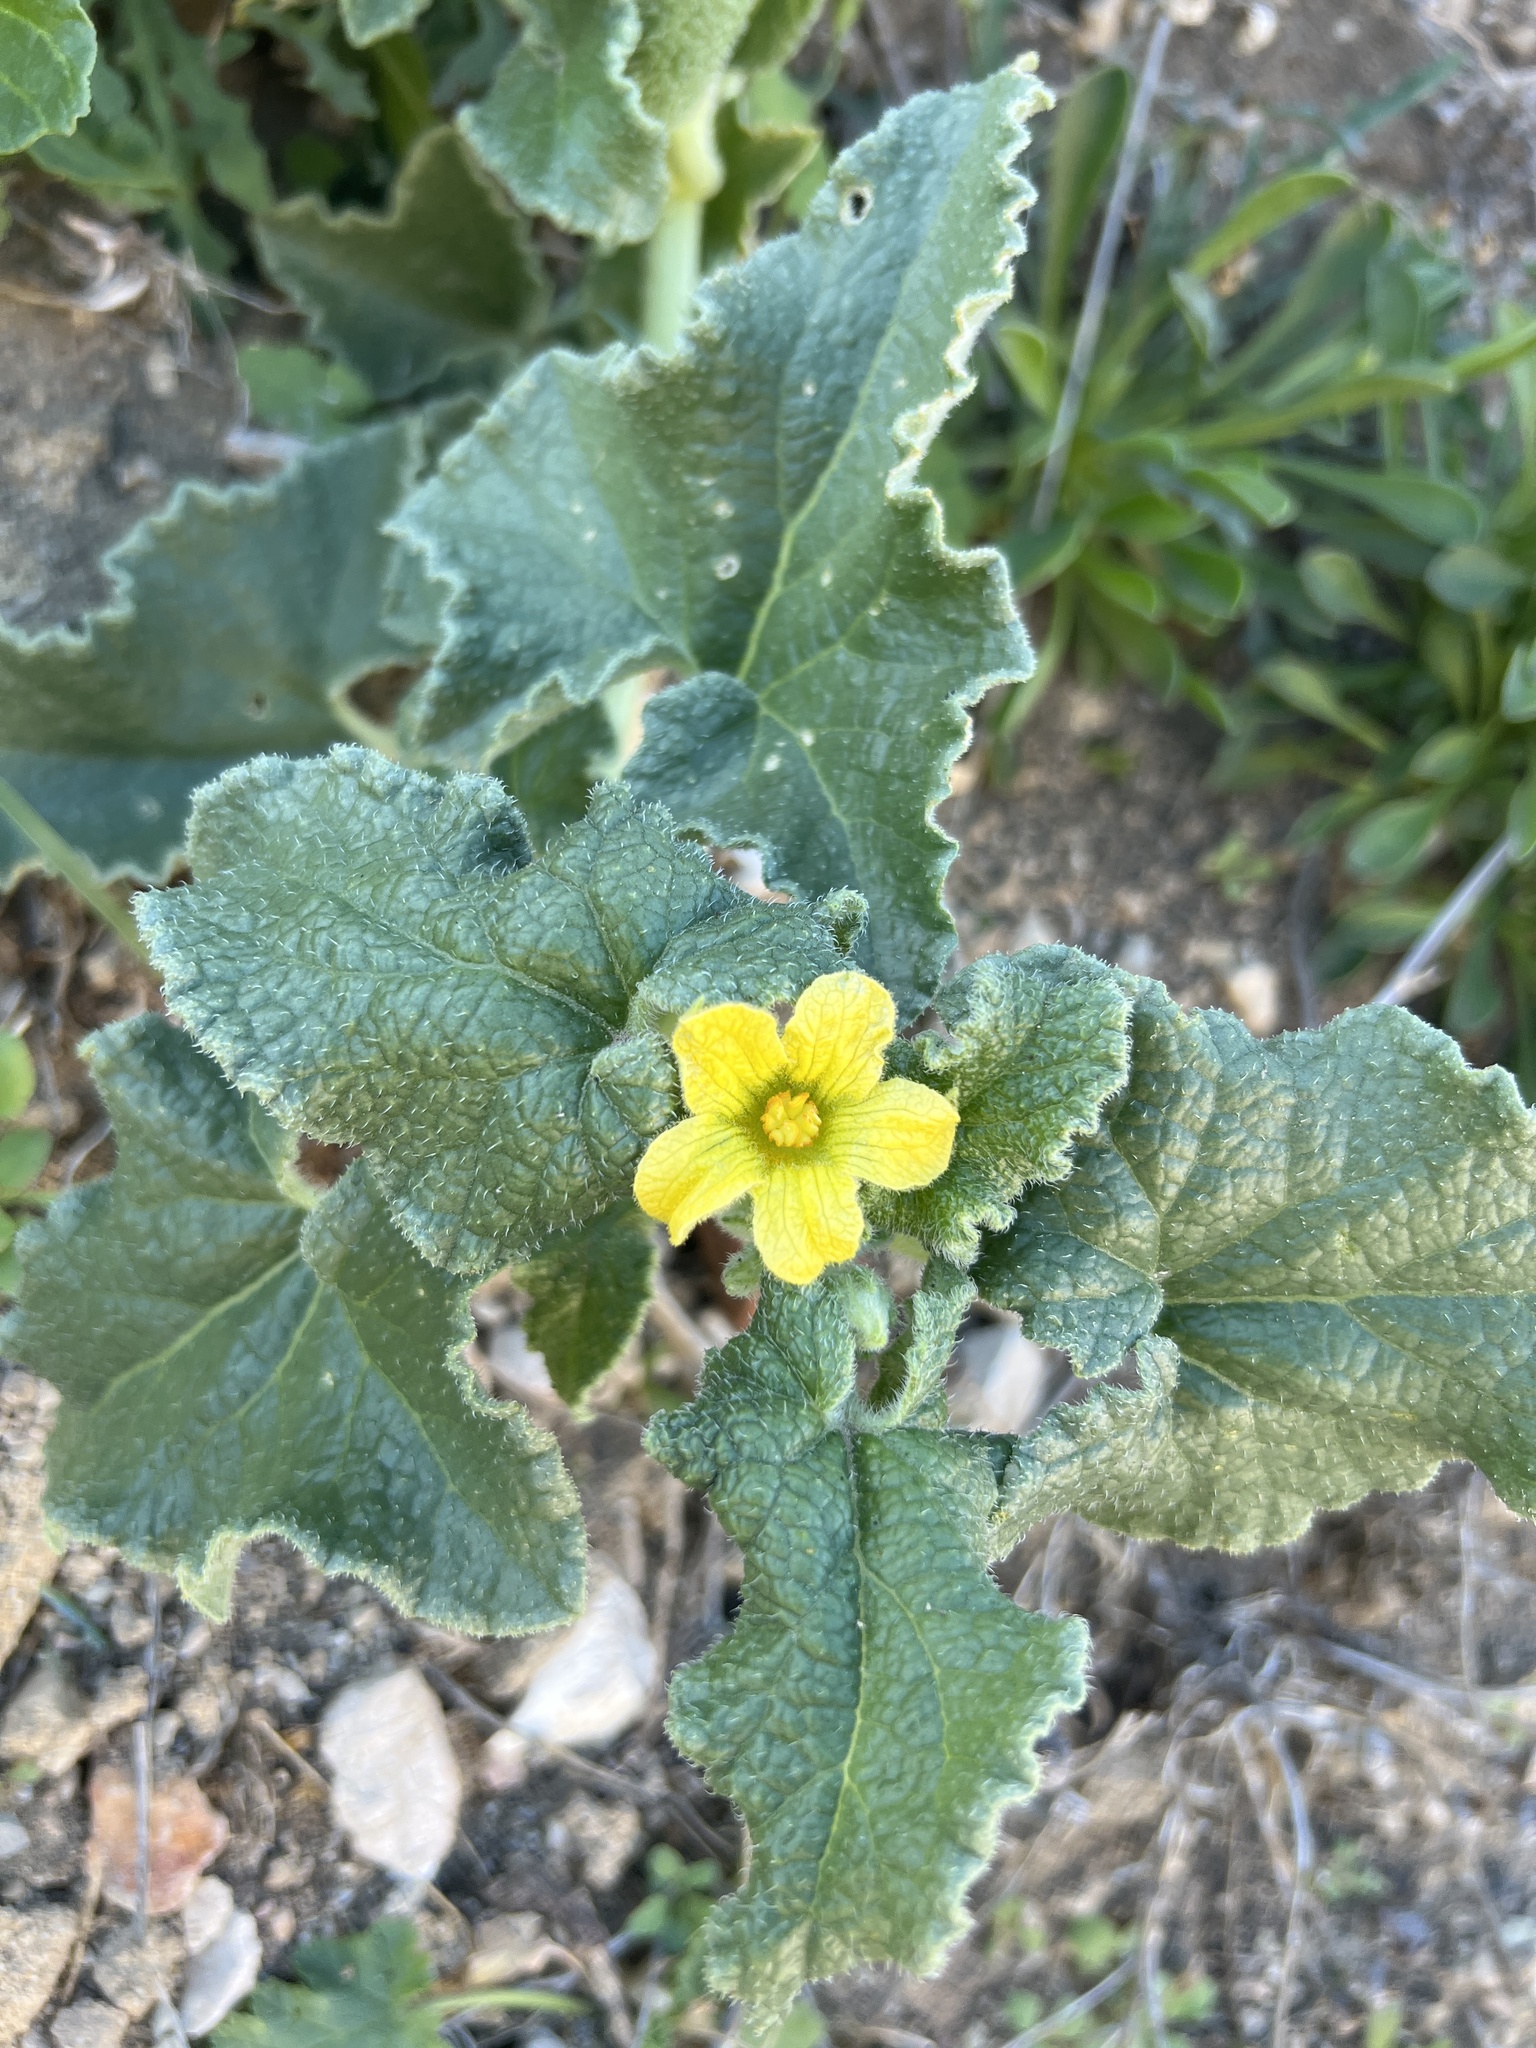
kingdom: Plantae
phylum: Tracheophyta
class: Magnoliopsida
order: Cucurbitales
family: Cucurbitaceae
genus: Ecballium
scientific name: Ecballium elaterium
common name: Squirting cucumber
